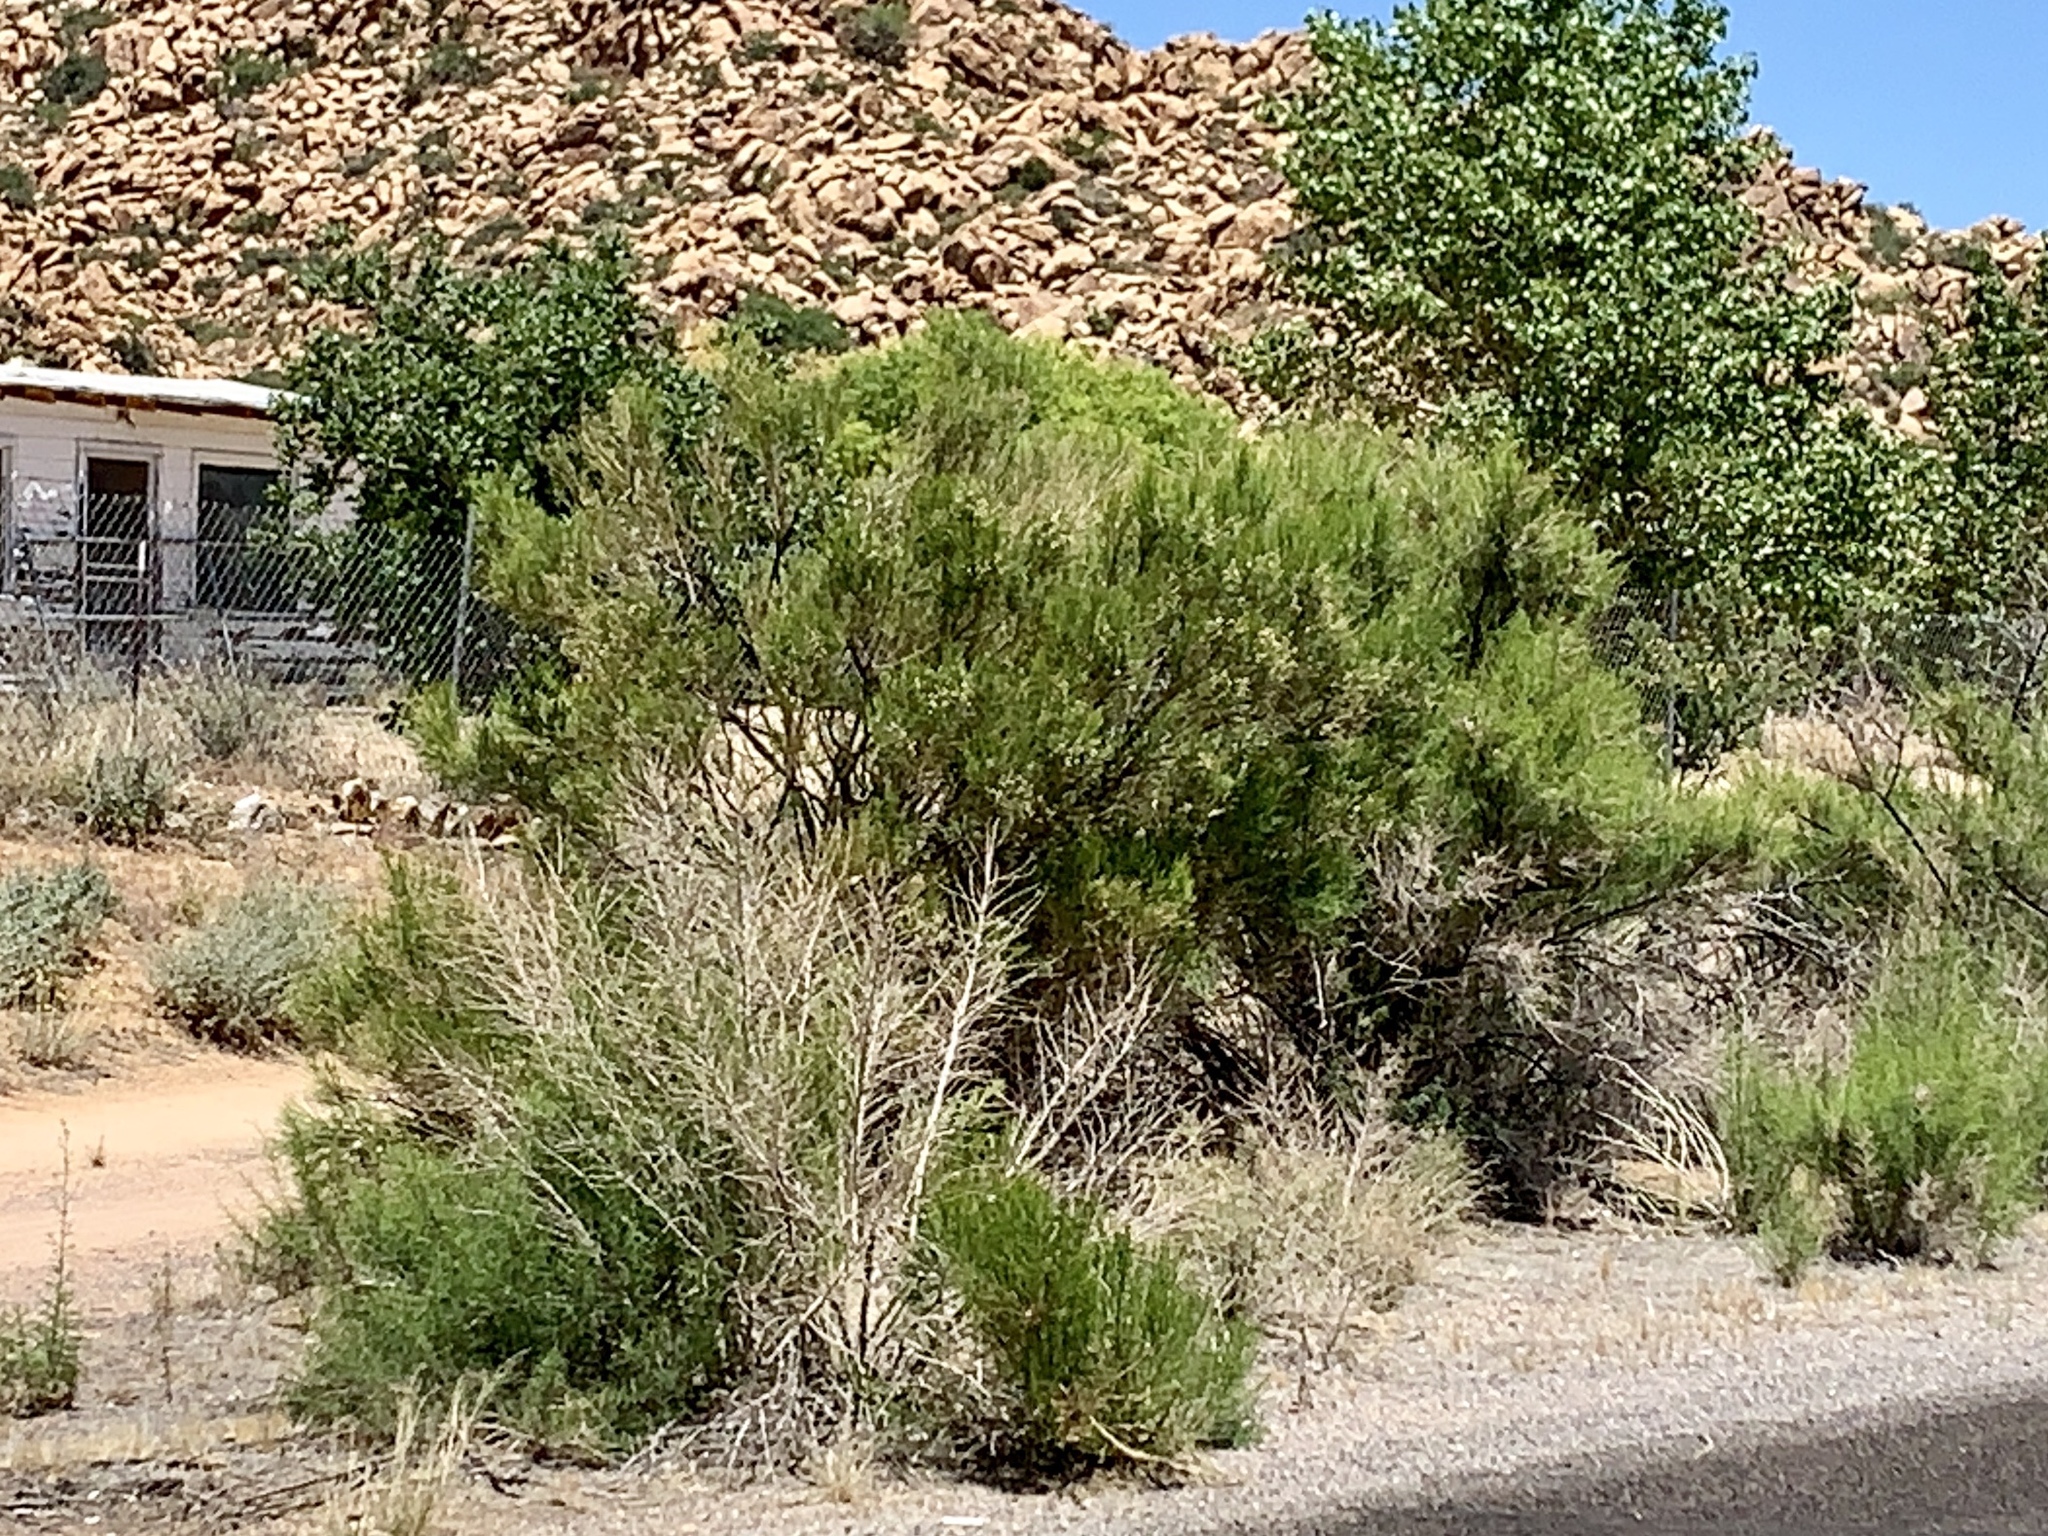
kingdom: Plantae
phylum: Tracheophyta
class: Magnoliopsida
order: Asterales
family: Asteraceae
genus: Baccharis
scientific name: Baccharis sarothroides
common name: Desert-broom
